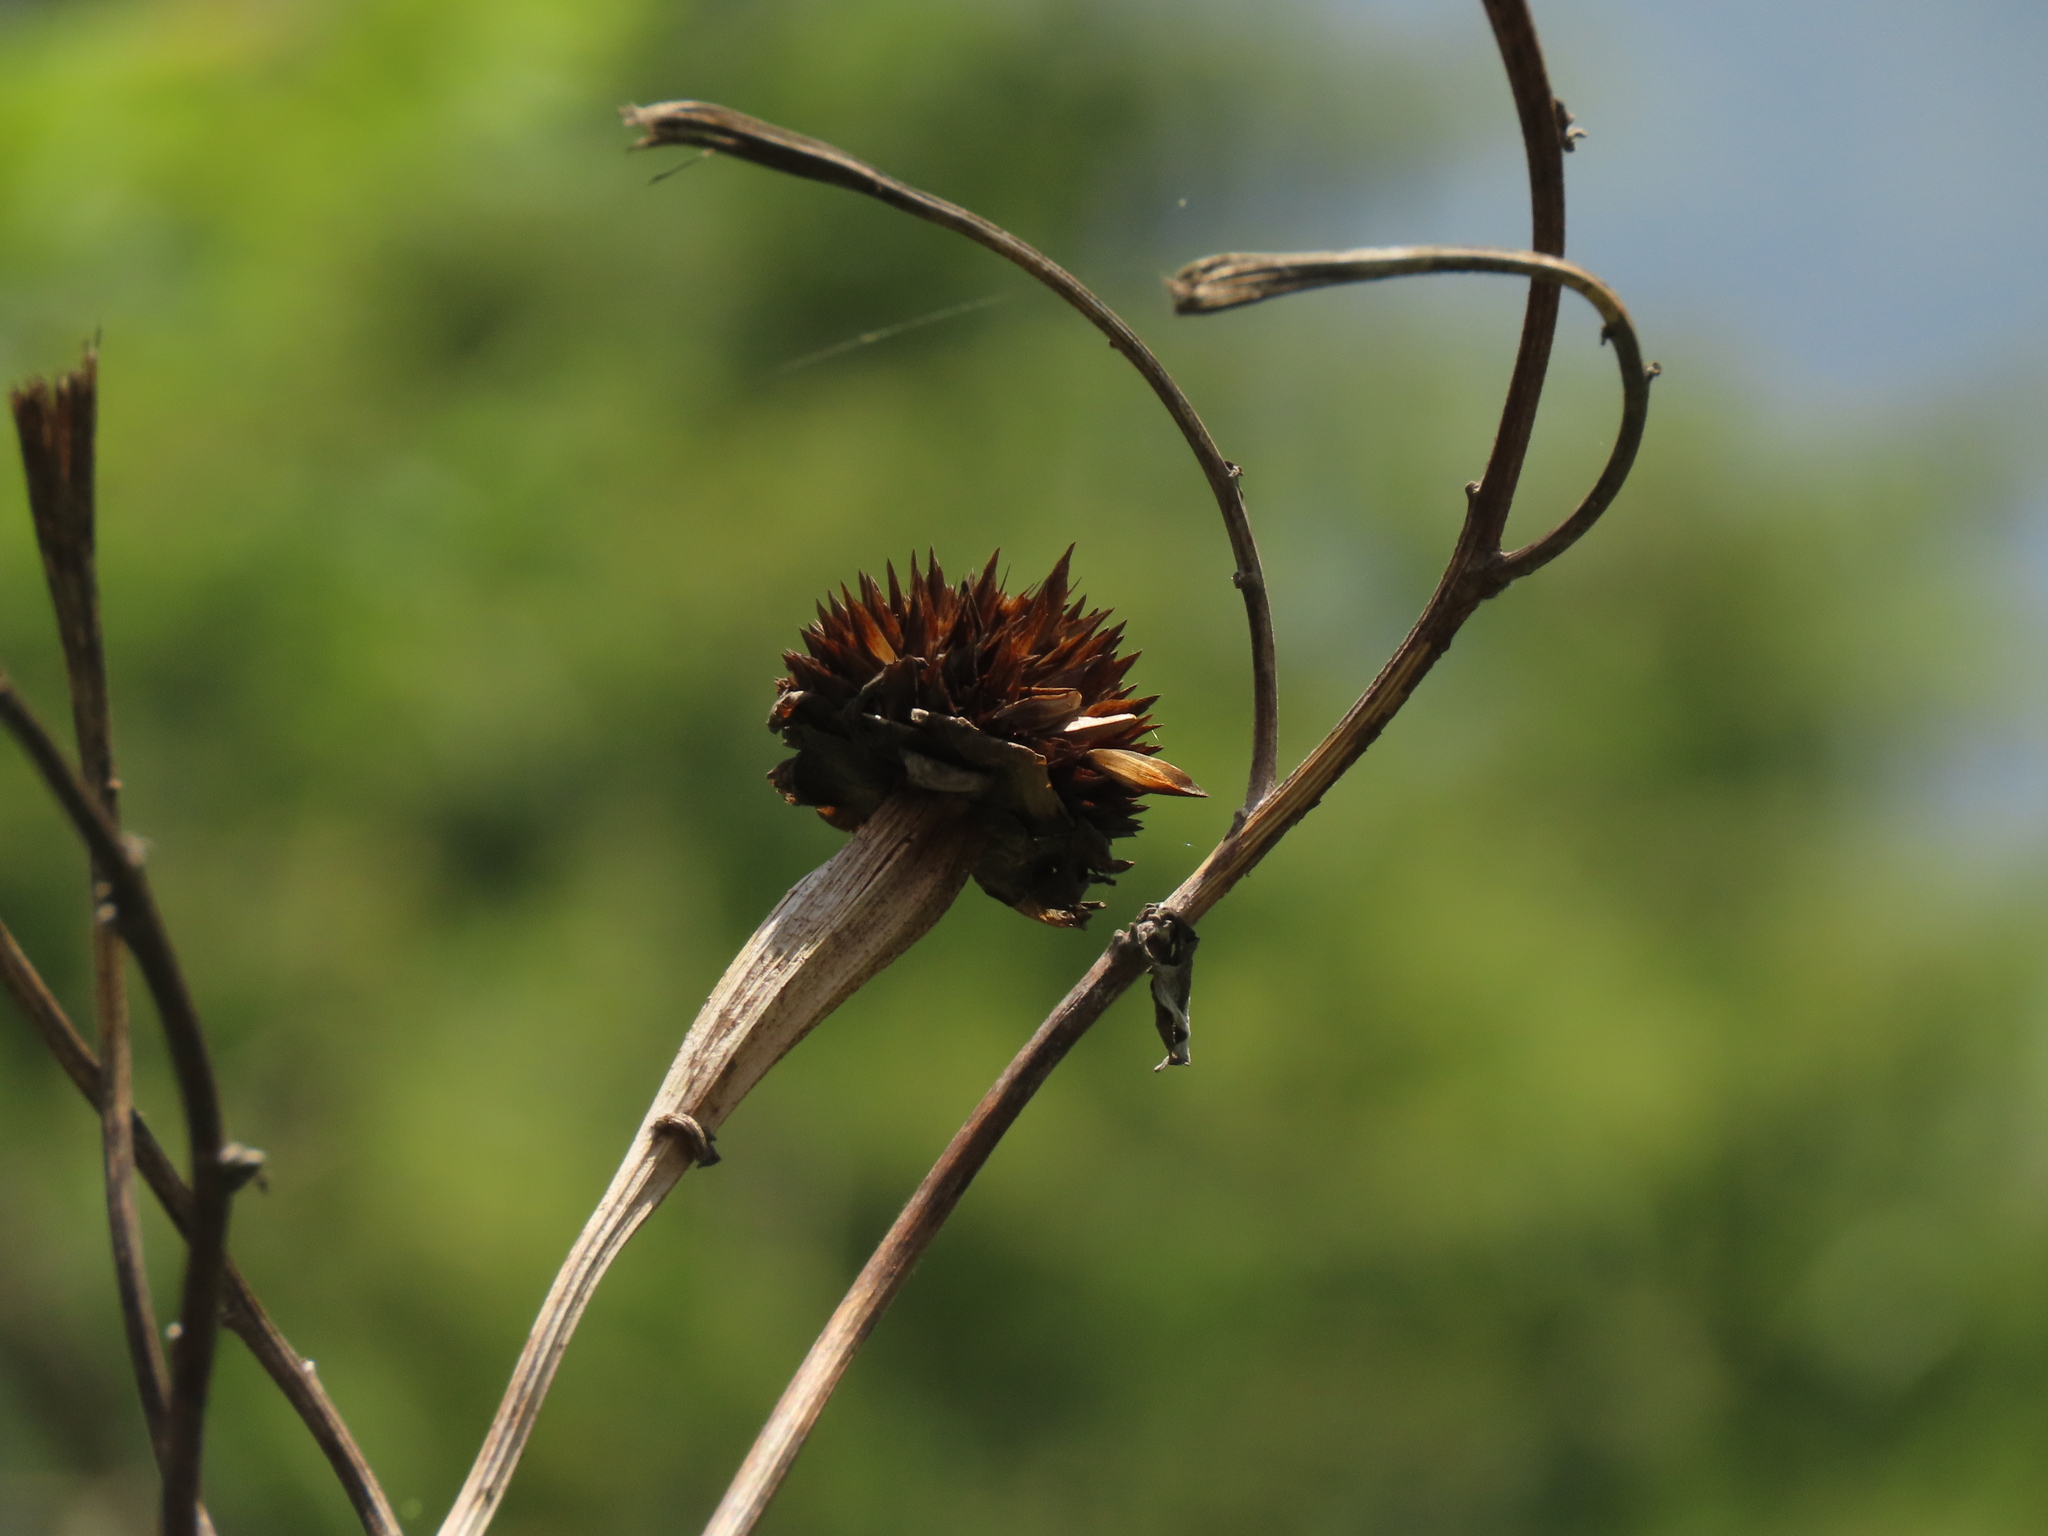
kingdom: Plantae
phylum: Tracheophyta
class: Magnoliopsida
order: Asterales
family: Asteraceae
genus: Tithonia
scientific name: Tithonia diversifolia
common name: Tree marigold
